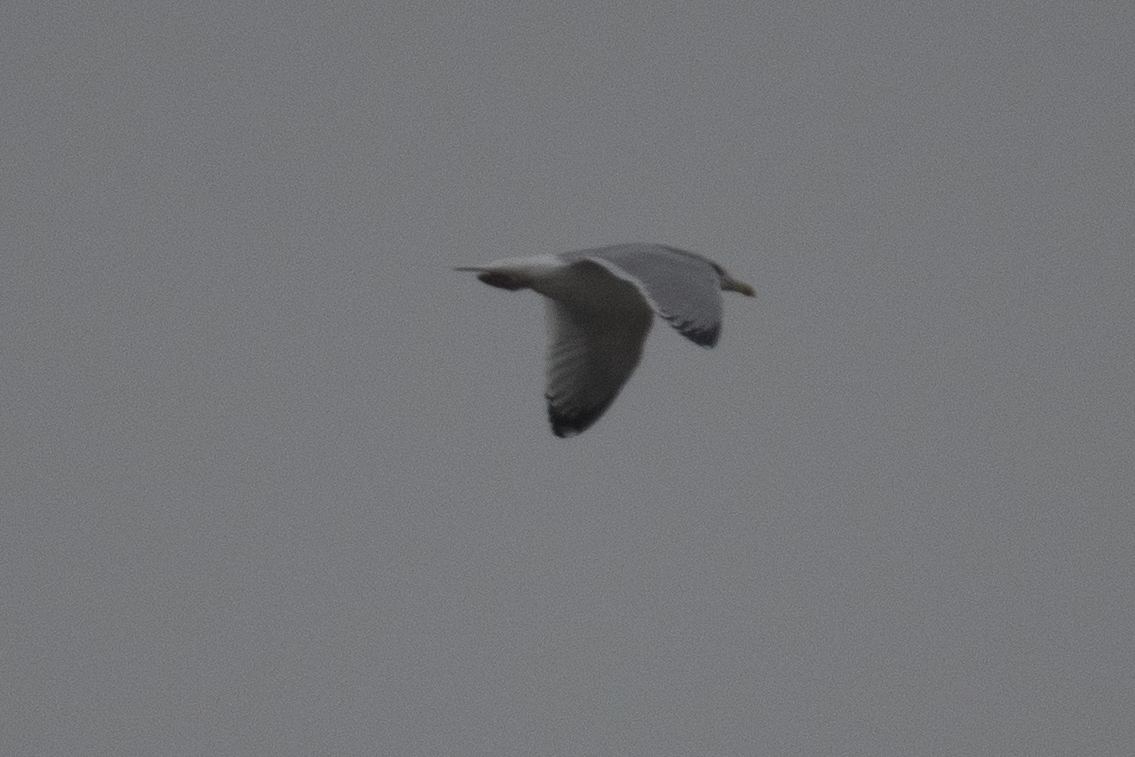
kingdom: Animalia
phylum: Chordata
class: Aves
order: Charadriiformes
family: Laridae
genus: Larus
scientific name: Larus argentatus
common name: Herring gull
